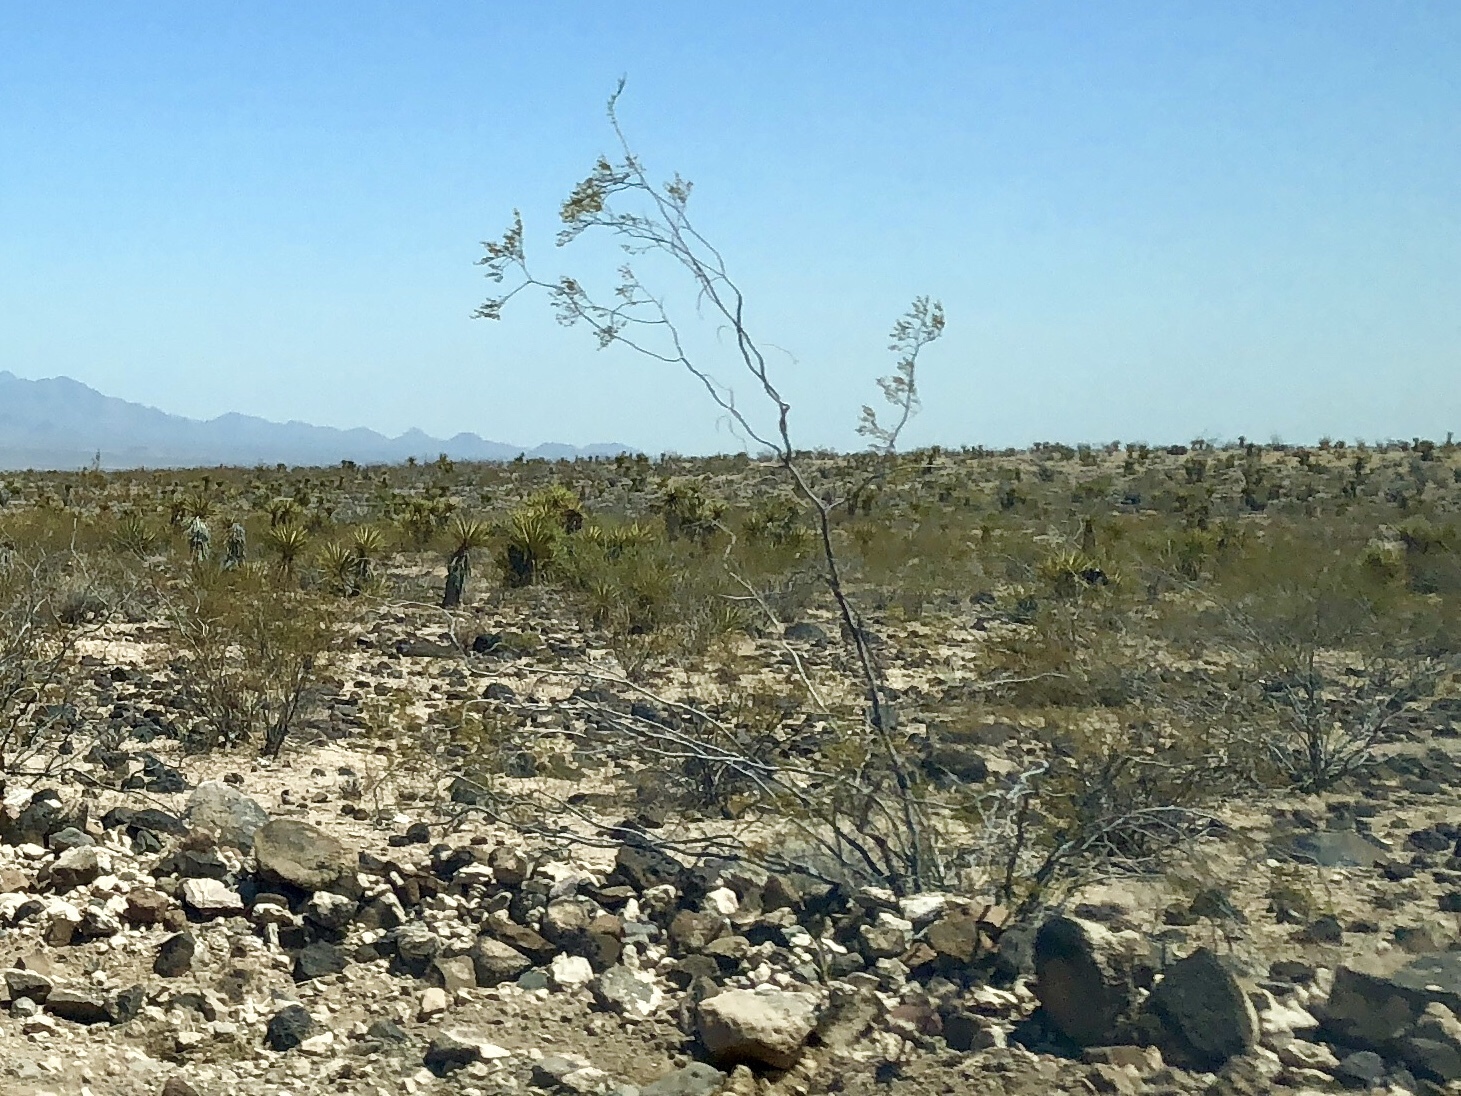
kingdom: Plantae
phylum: Tracheophyta
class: Magnoliopsida
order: Zygophyllales
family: Zygophyllaceae
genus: Larrea
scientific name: Larrea tridentata
